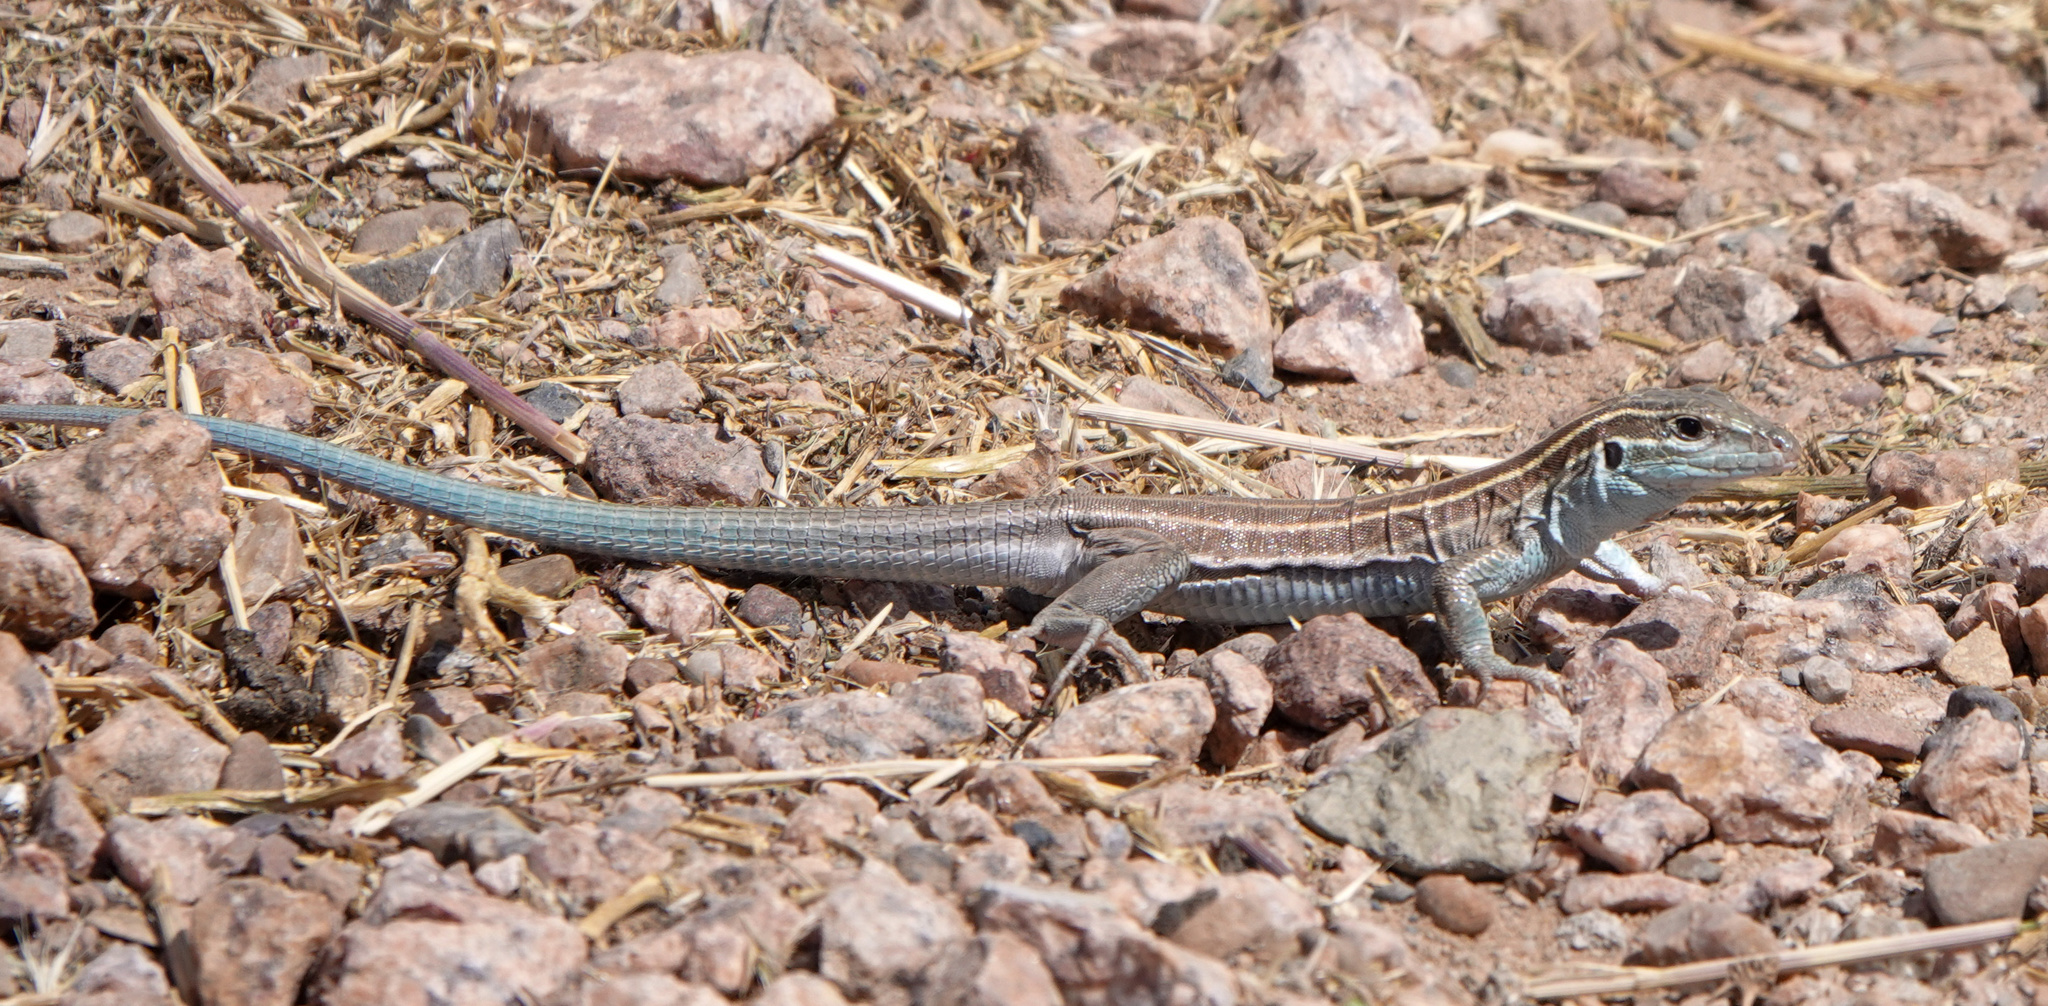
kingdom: Animalia
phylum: Chordata
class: Squamata
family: Teiidae
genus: Aspidoscelis
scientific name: Aspidoscelis velox
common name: Plateau striped whiptail
